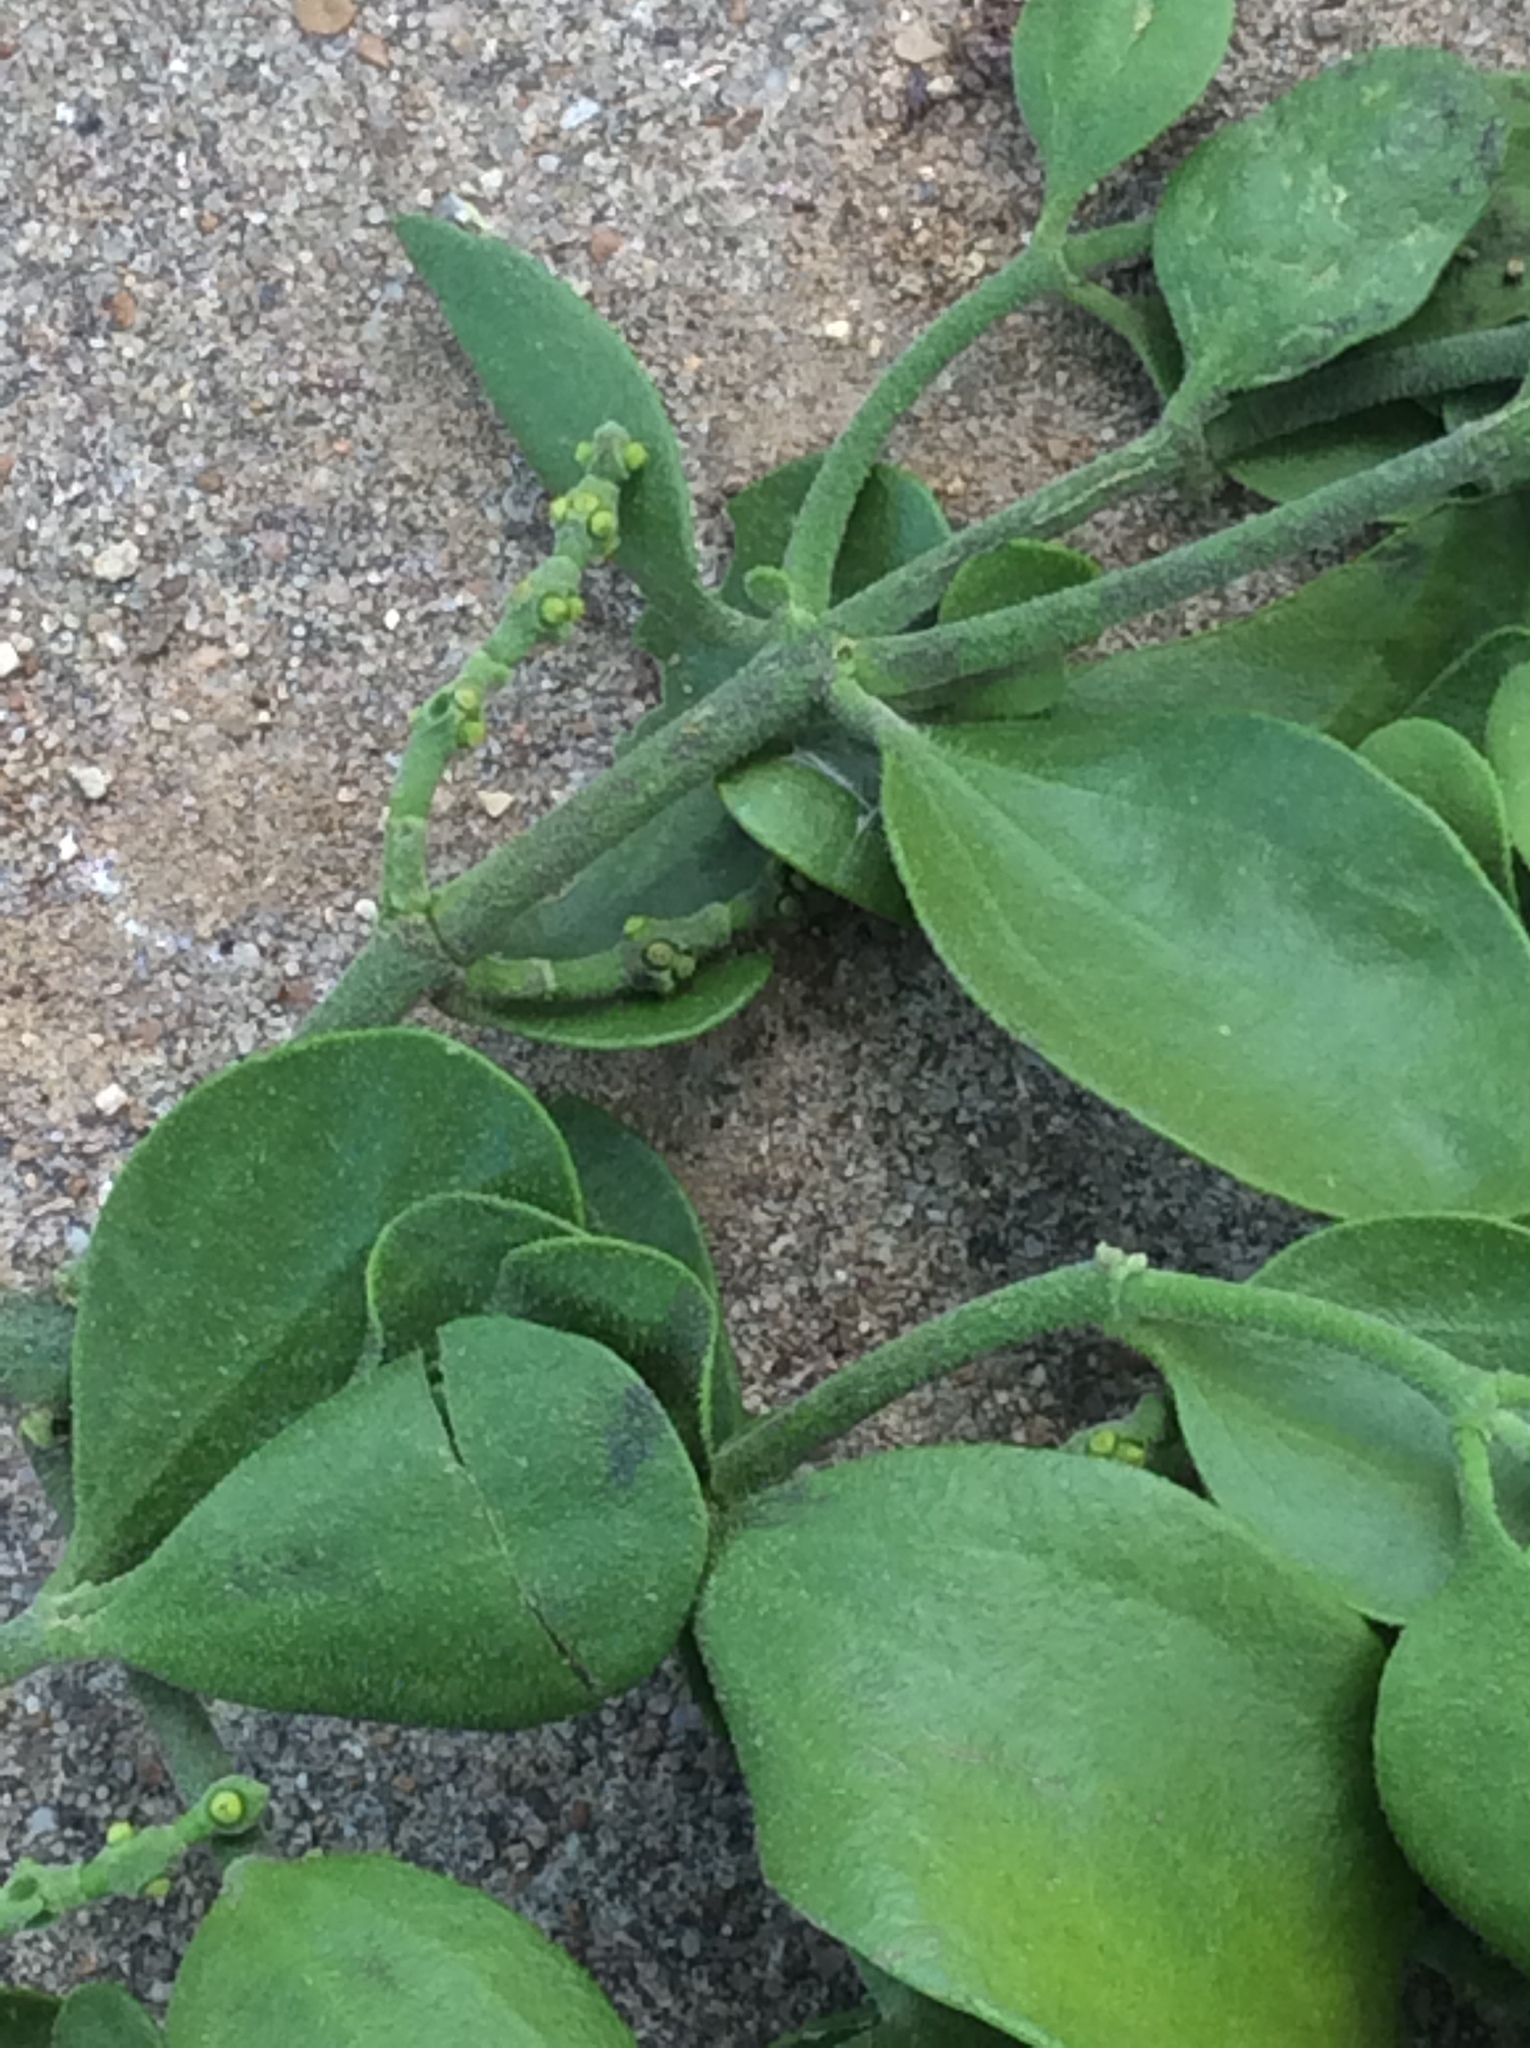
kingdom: Plantae
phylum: Tracheophyta
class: Magnoliopsida
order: Santalales
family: Viscaceae
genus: Phoradendron
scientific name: Phoradendron leucarpum
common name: Pacific mistletoe
